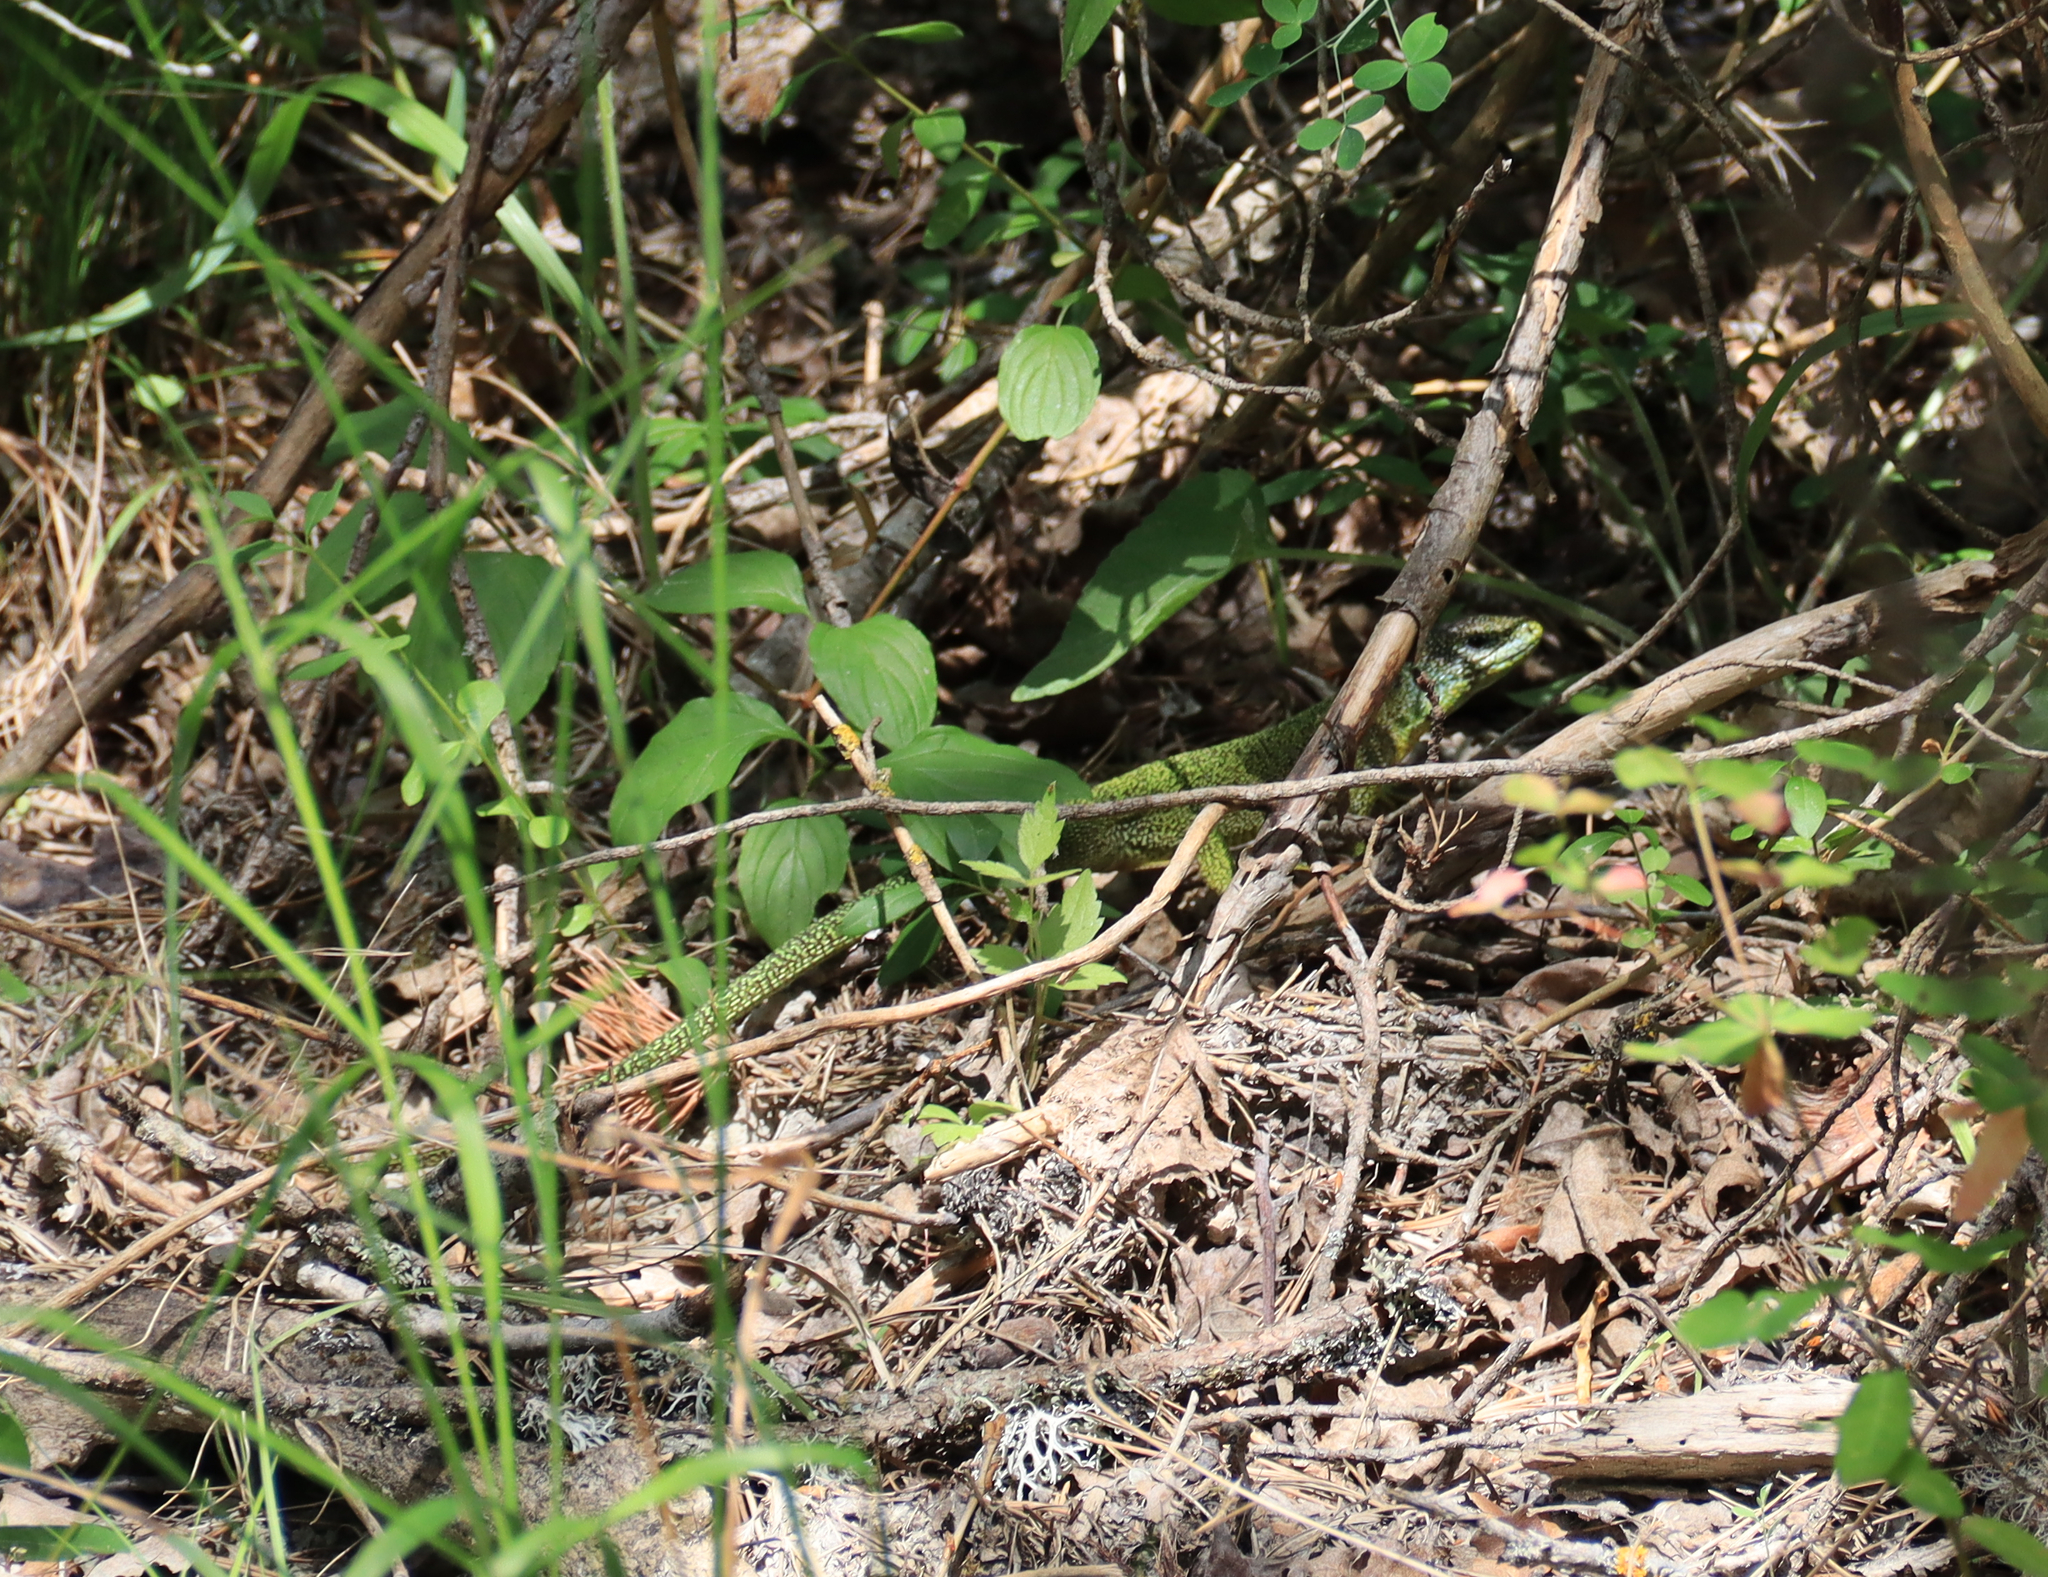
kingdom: Animalia
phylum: Chordata
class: Squamata
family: Lacertidae
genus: Lacerta
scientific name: Lacerta bilineata
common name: Western green lizard
